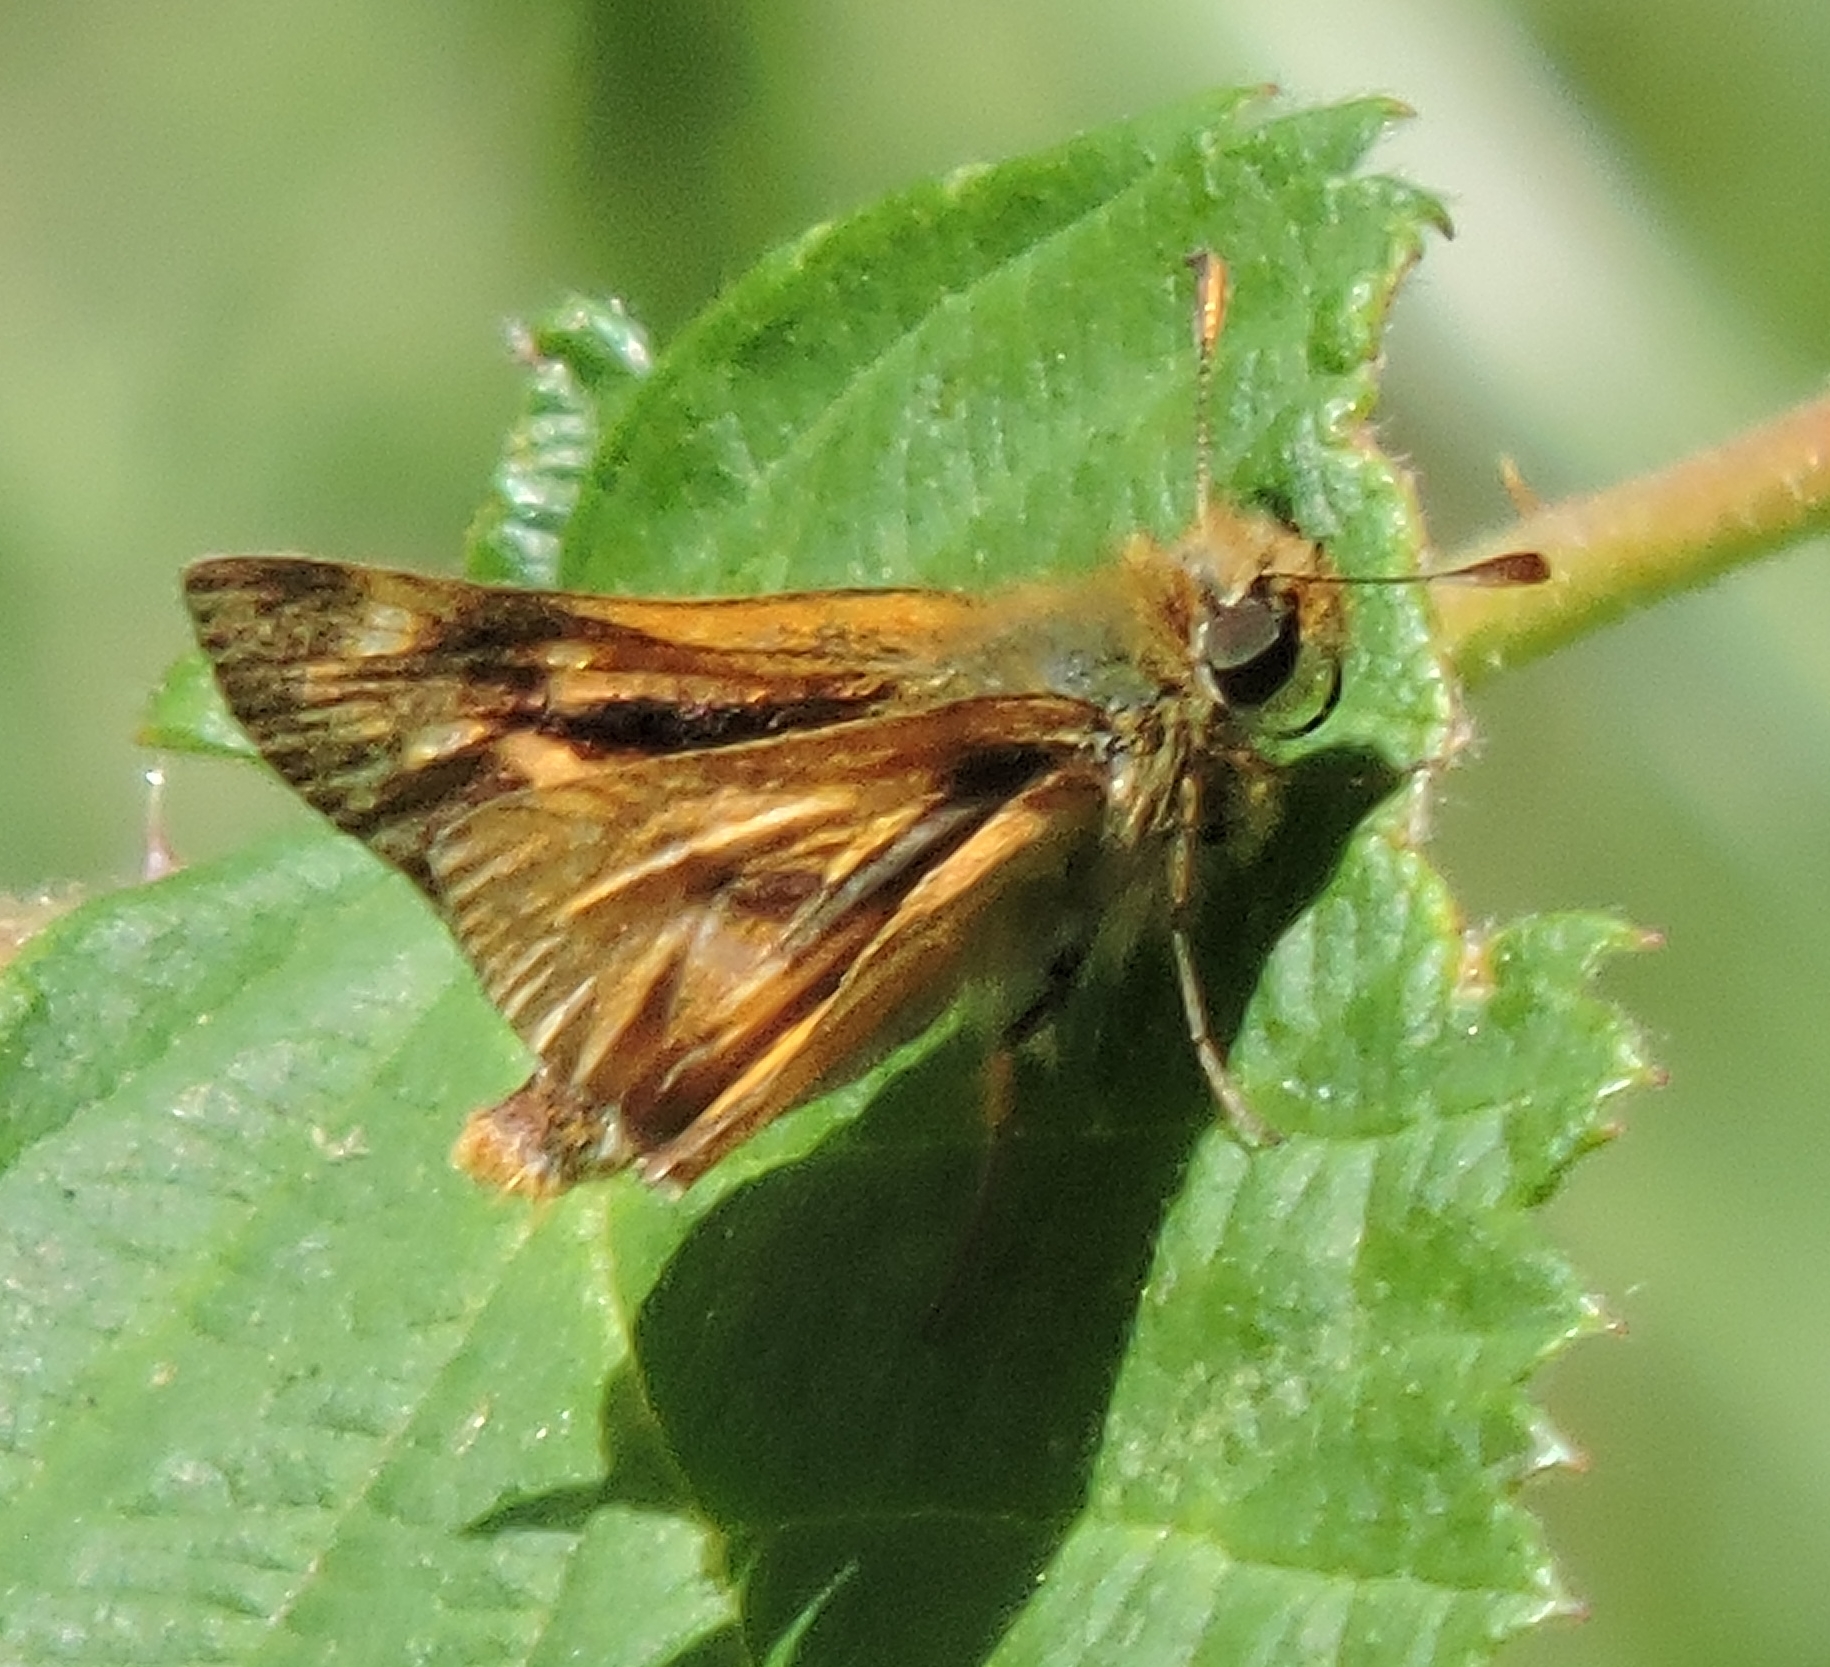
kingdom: Animalia
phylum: Arthropoda
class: Insecta
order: Lepidoptera
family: Hesperiidae
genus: Ochlodes
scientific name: Ochlodes agricola
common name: Rural skipper
